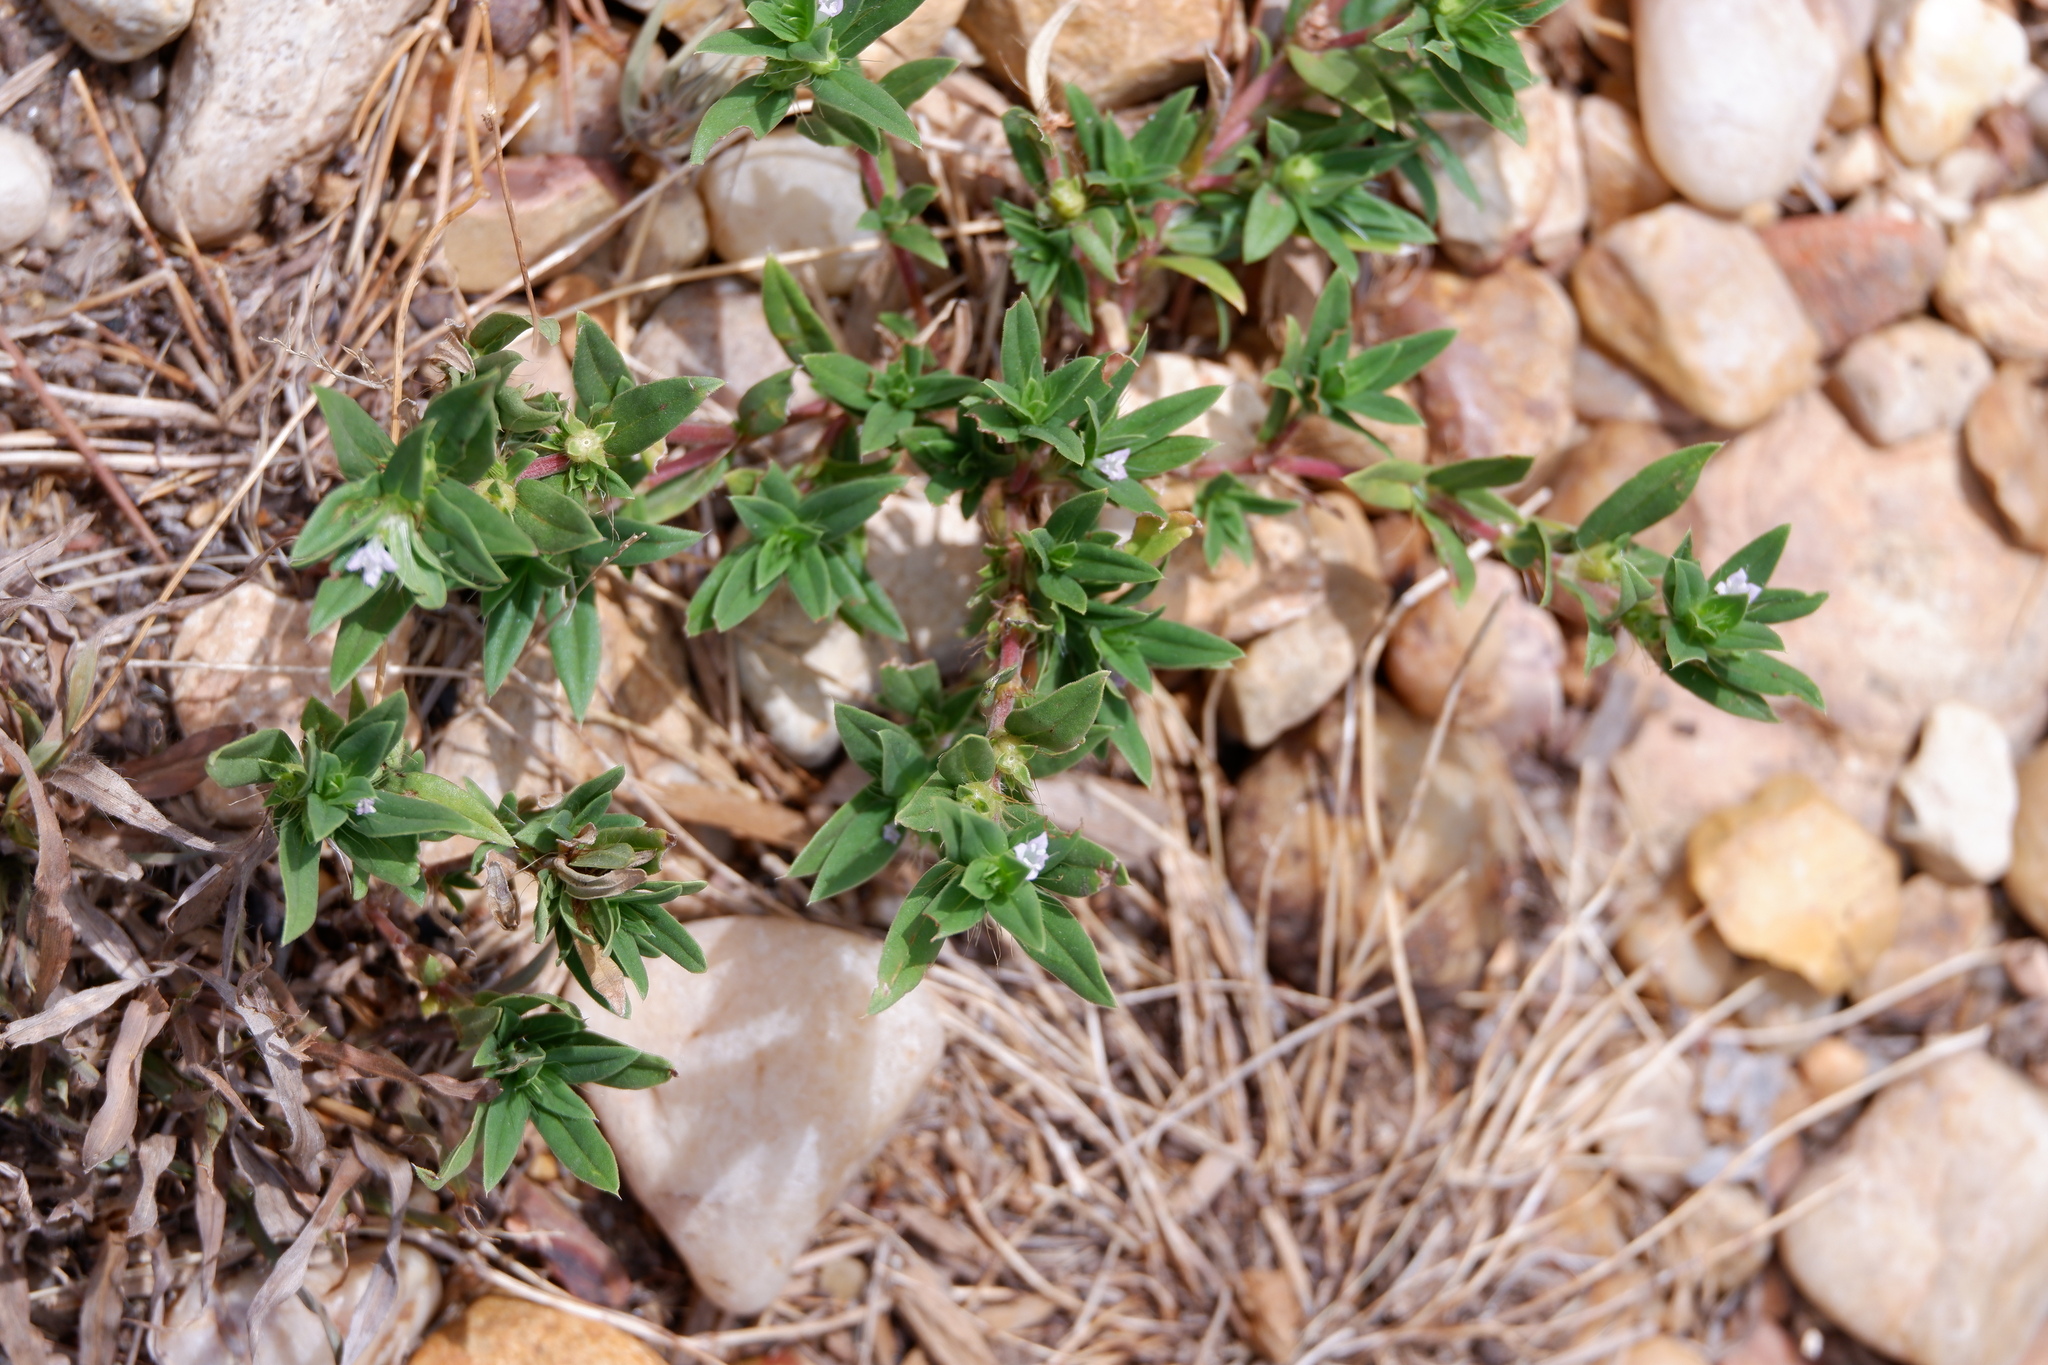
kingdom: Plantae
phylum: Tracheophyta
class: Magnoliopsida
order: Gentianales
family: Rubiaceae
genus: Hexasepalum
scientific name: Hexasepalum teres
